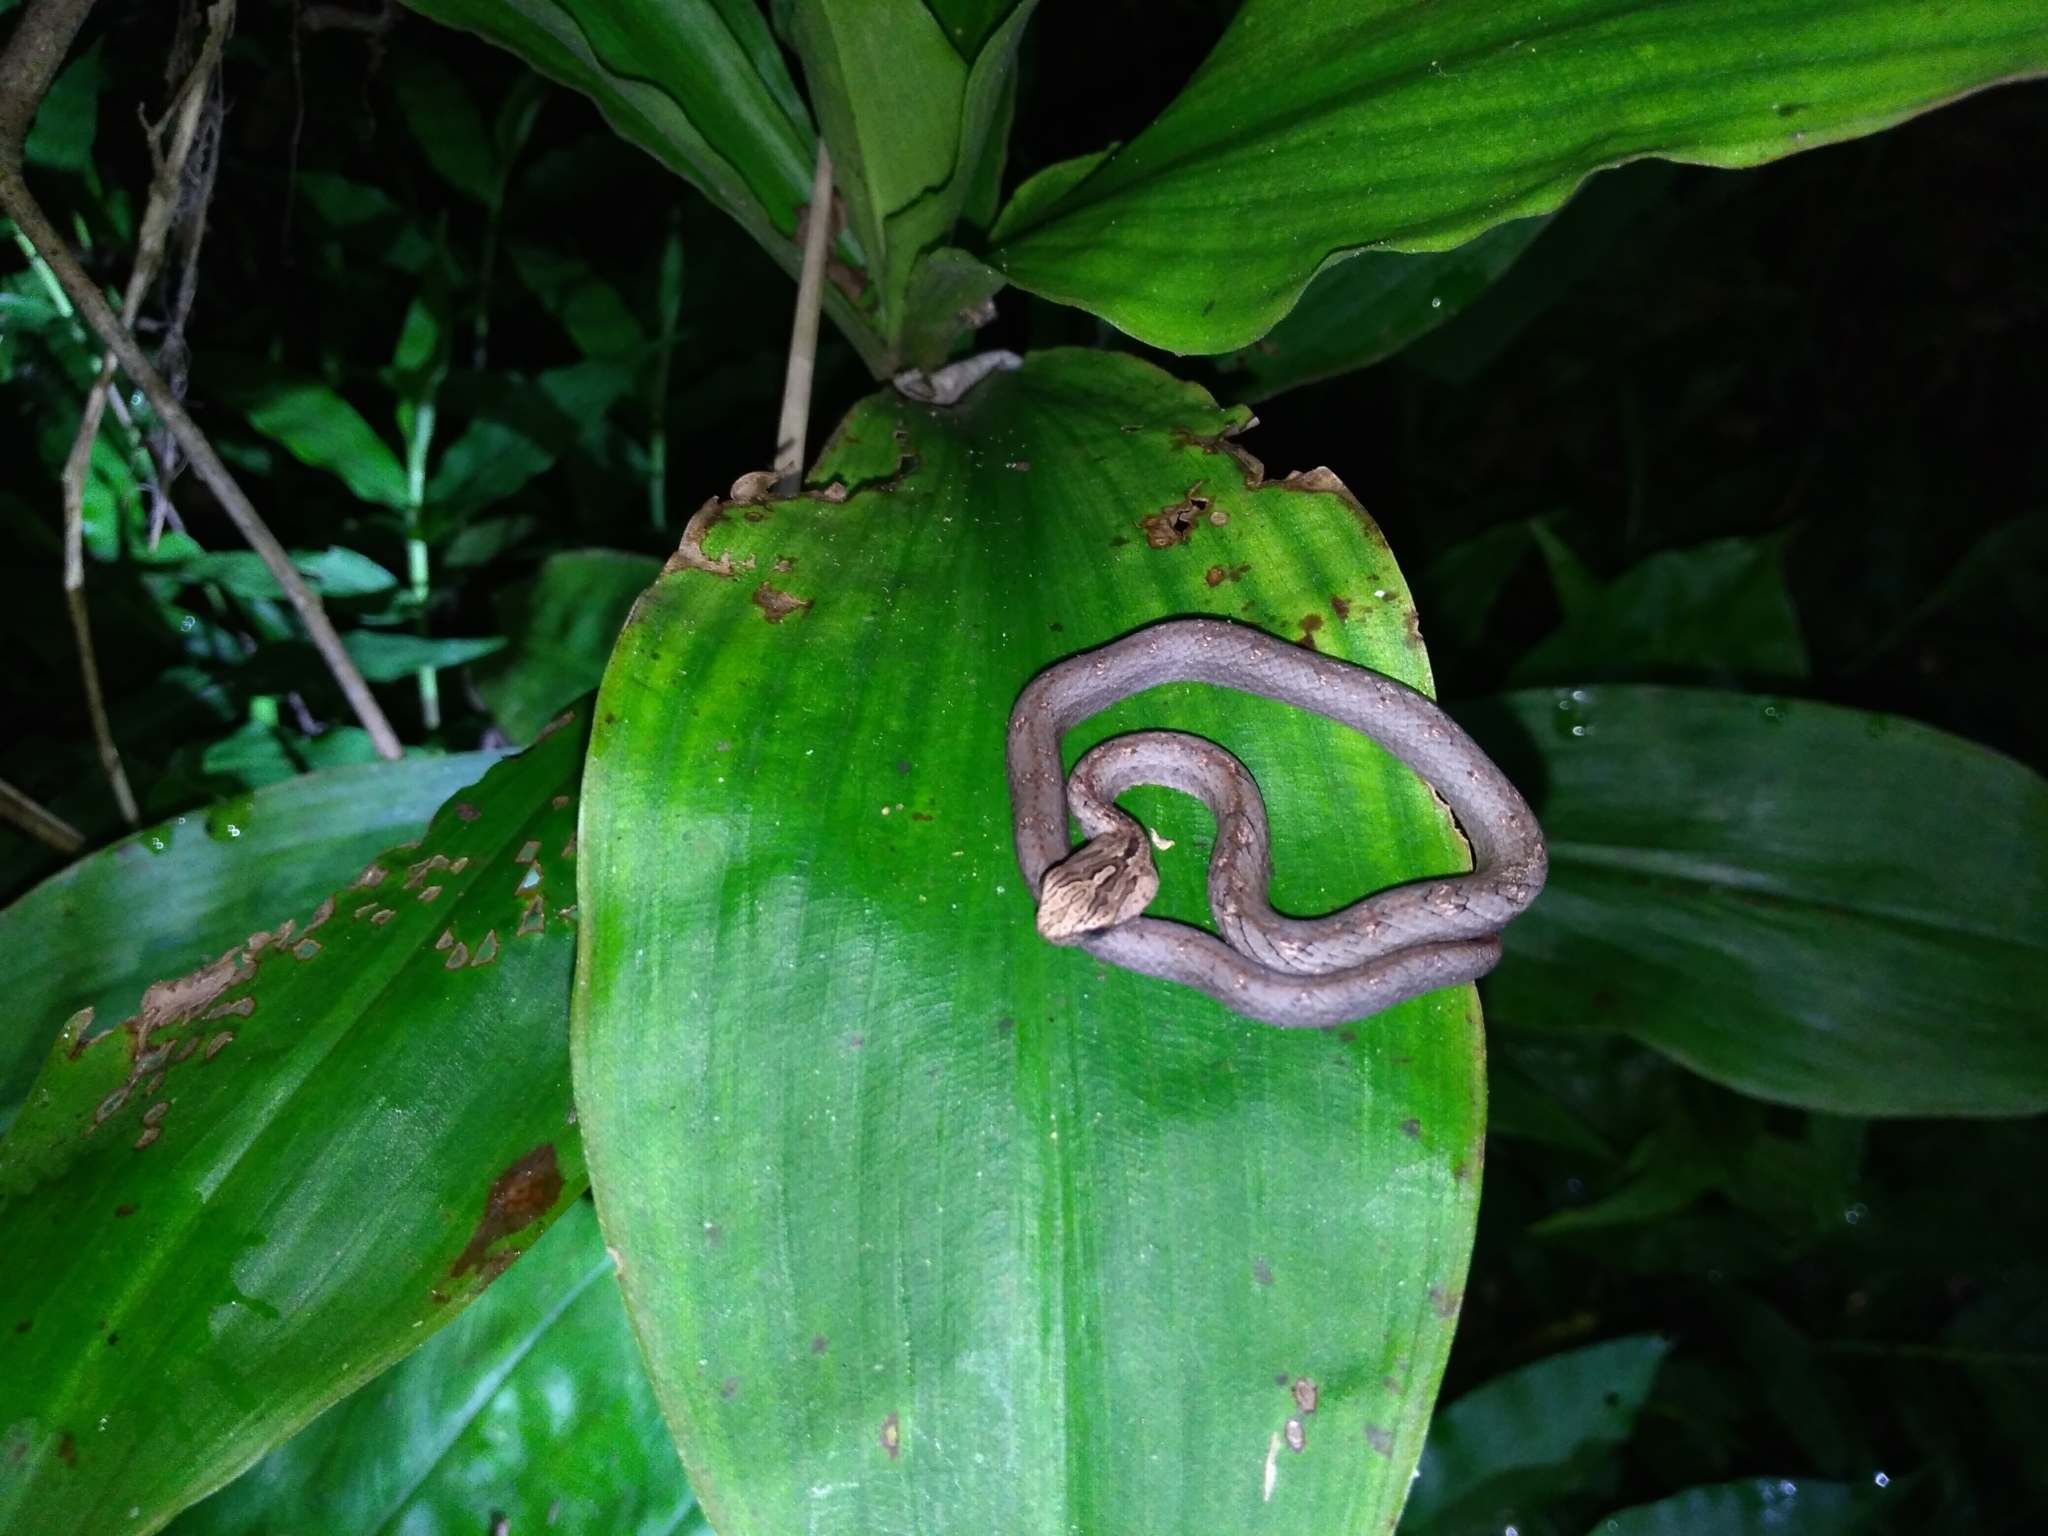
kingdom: Animalia
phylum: Chordata
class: Squamata
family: Pseudaspididae
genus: Psammodynastes
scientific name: Psammodynastes pulverulentus
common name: Common mock viper
